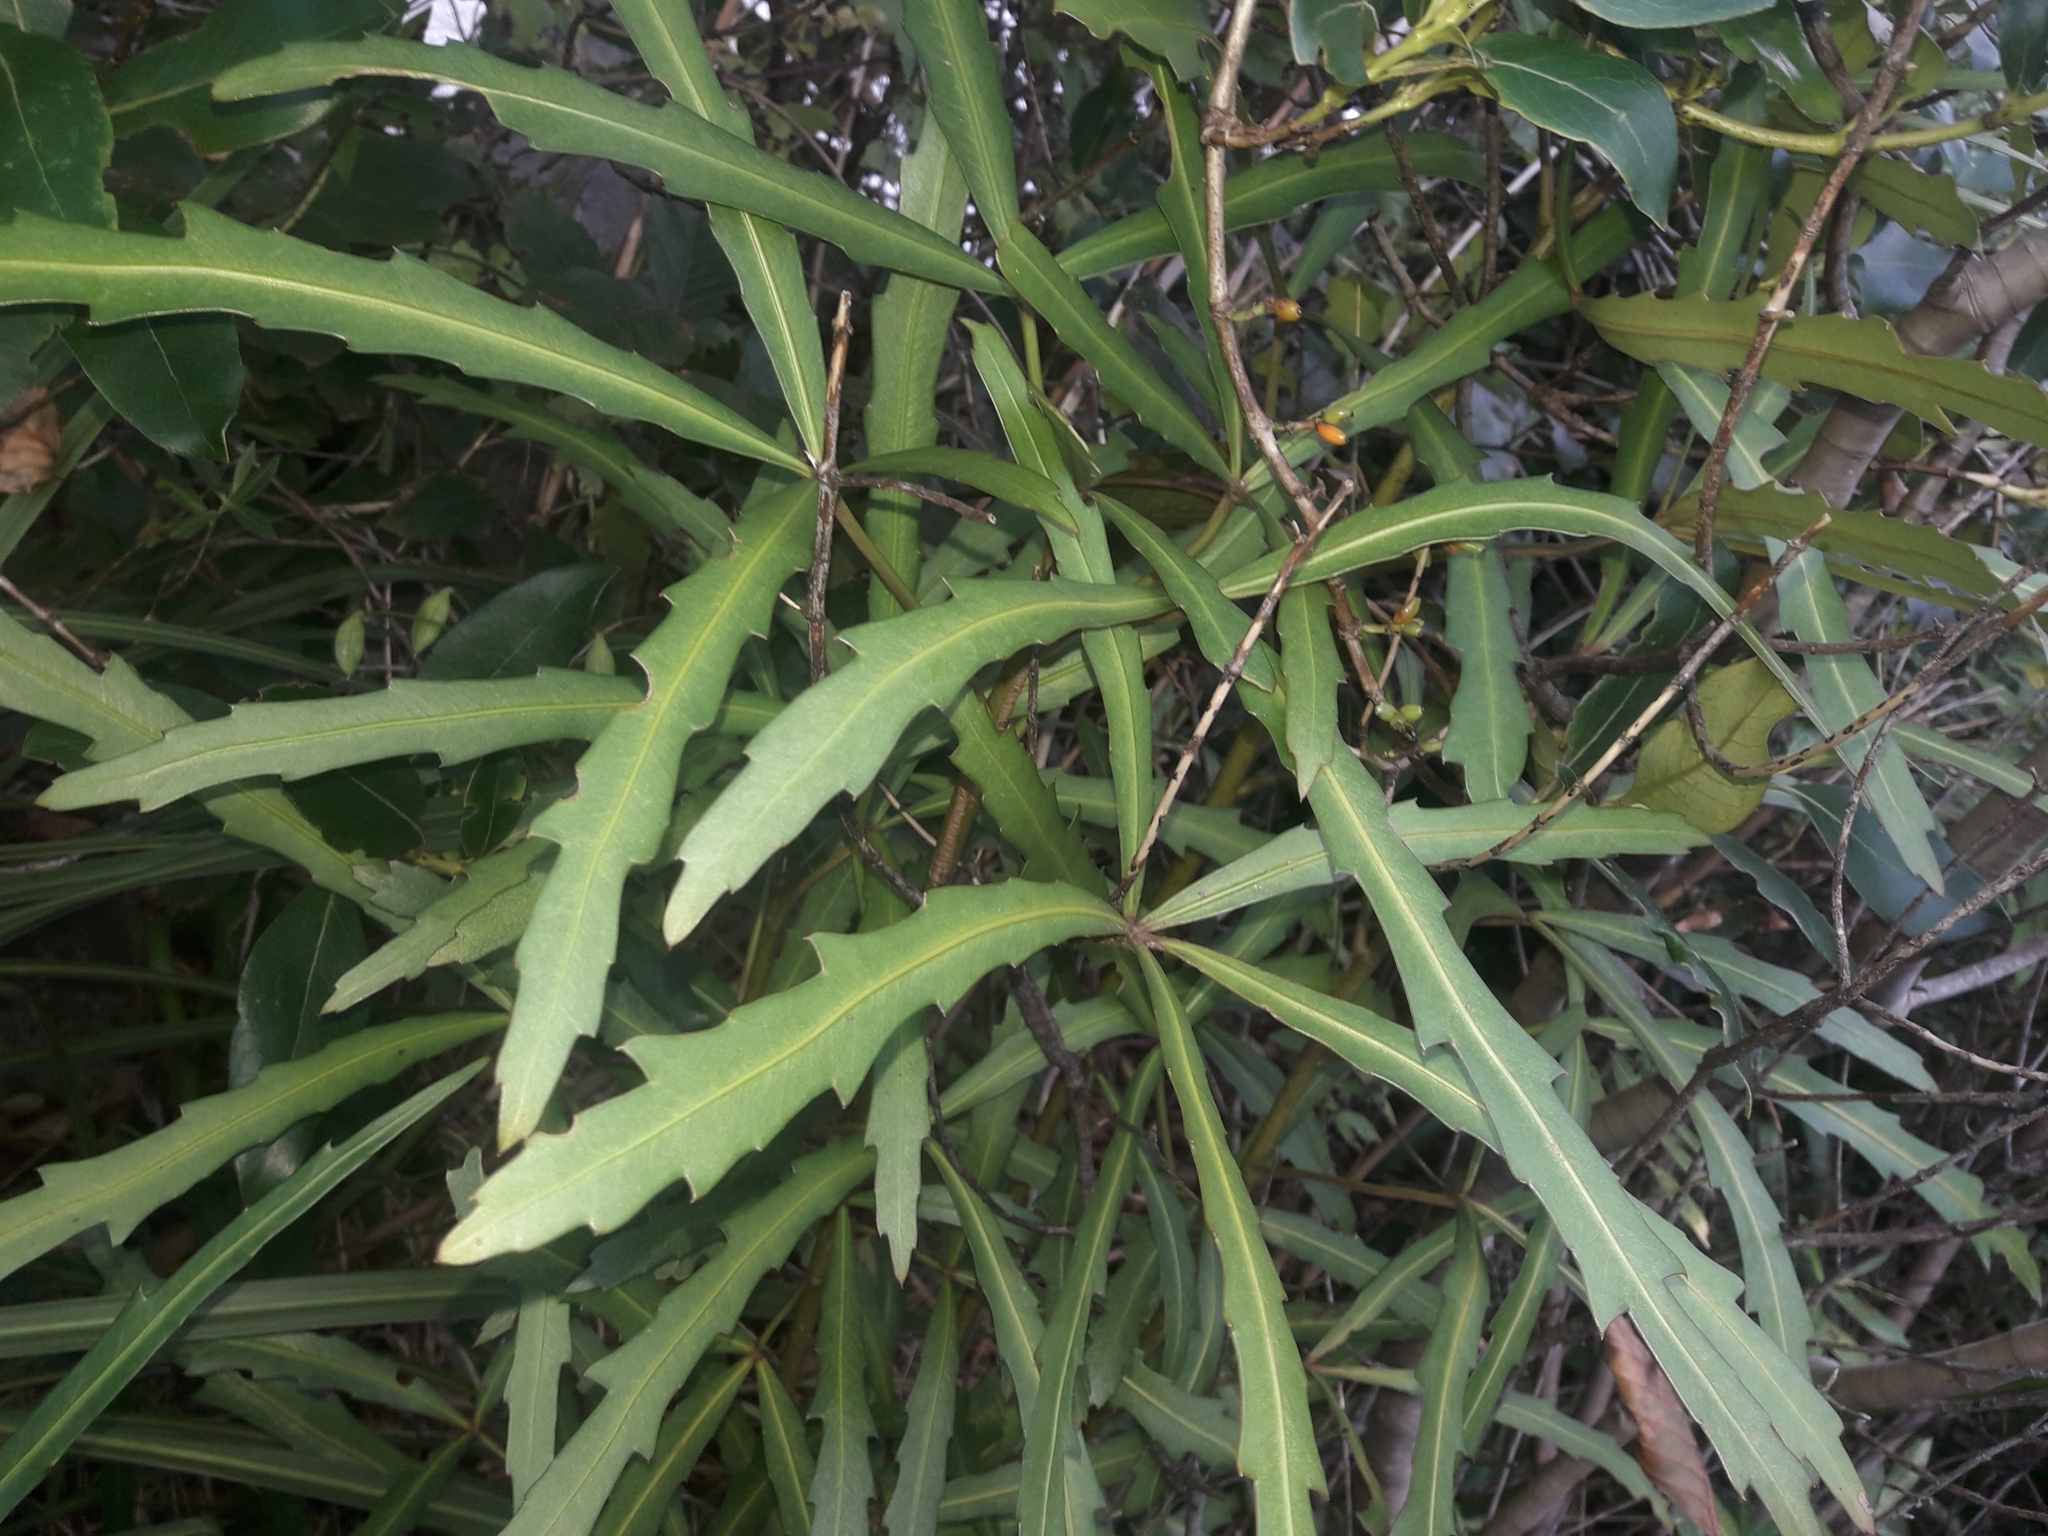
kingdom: Plantae
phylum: Tracheophyta
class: Magnoliopsida
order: Apiales
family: Araliaceae
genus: Pseudopanax
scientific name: Pseudopanax
